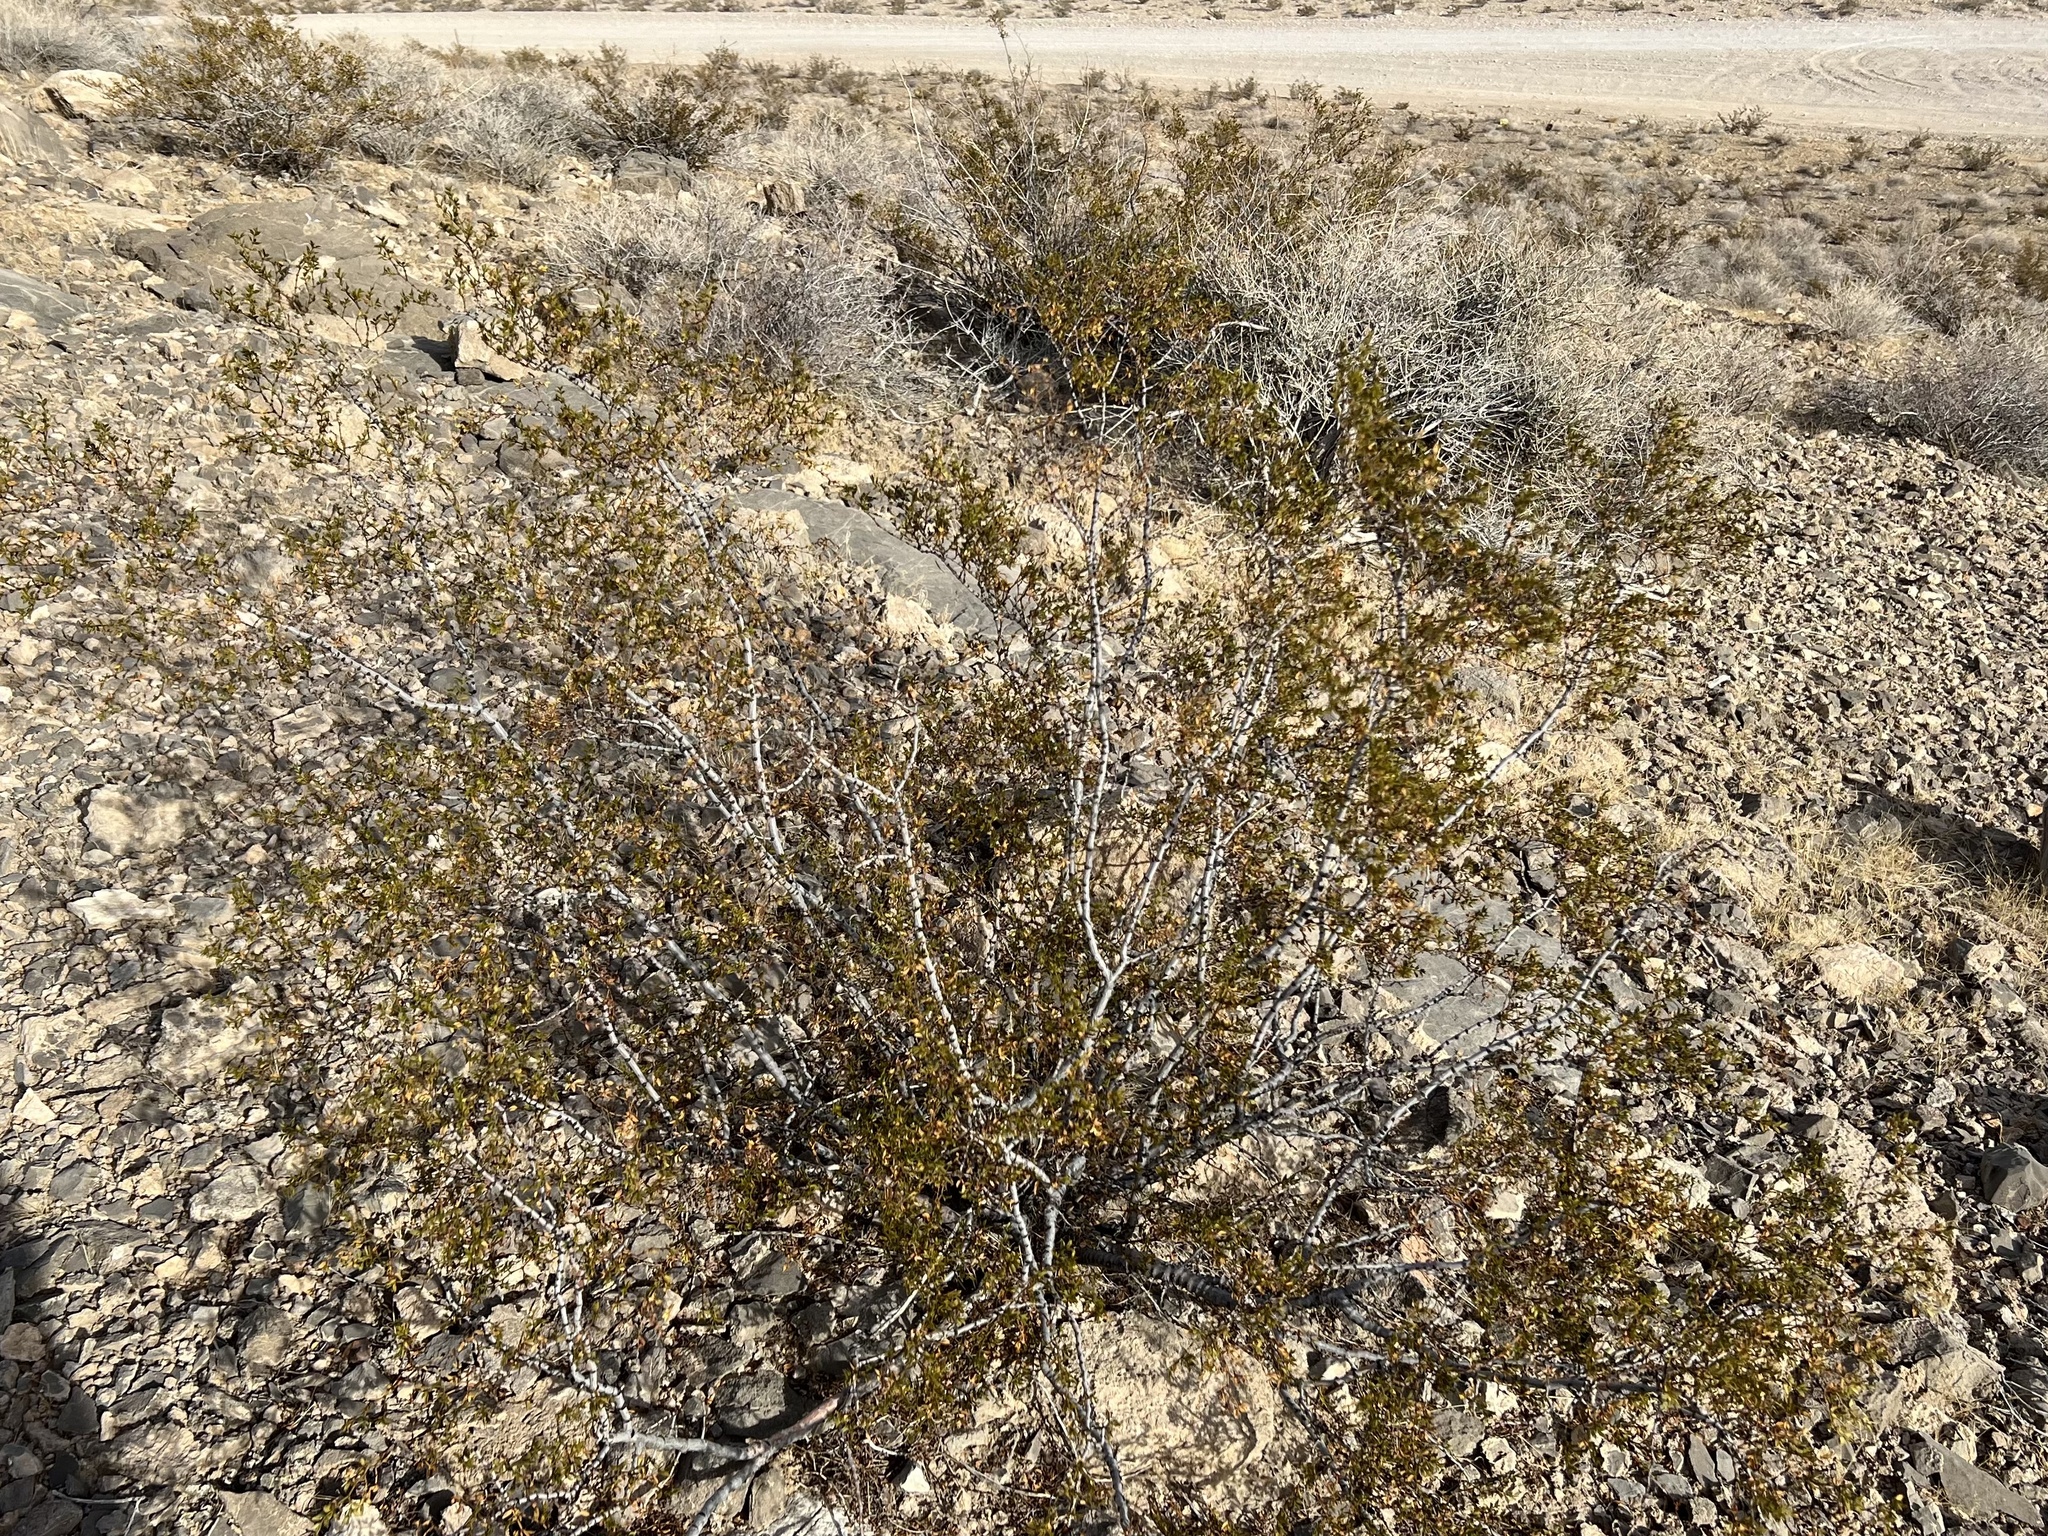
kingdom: Plantae
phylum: Tracheophyta
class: Magnoliopsida
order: Zygophyllales
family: Zygophyllaceae
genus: Larrea
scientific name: Larrea tridentata
